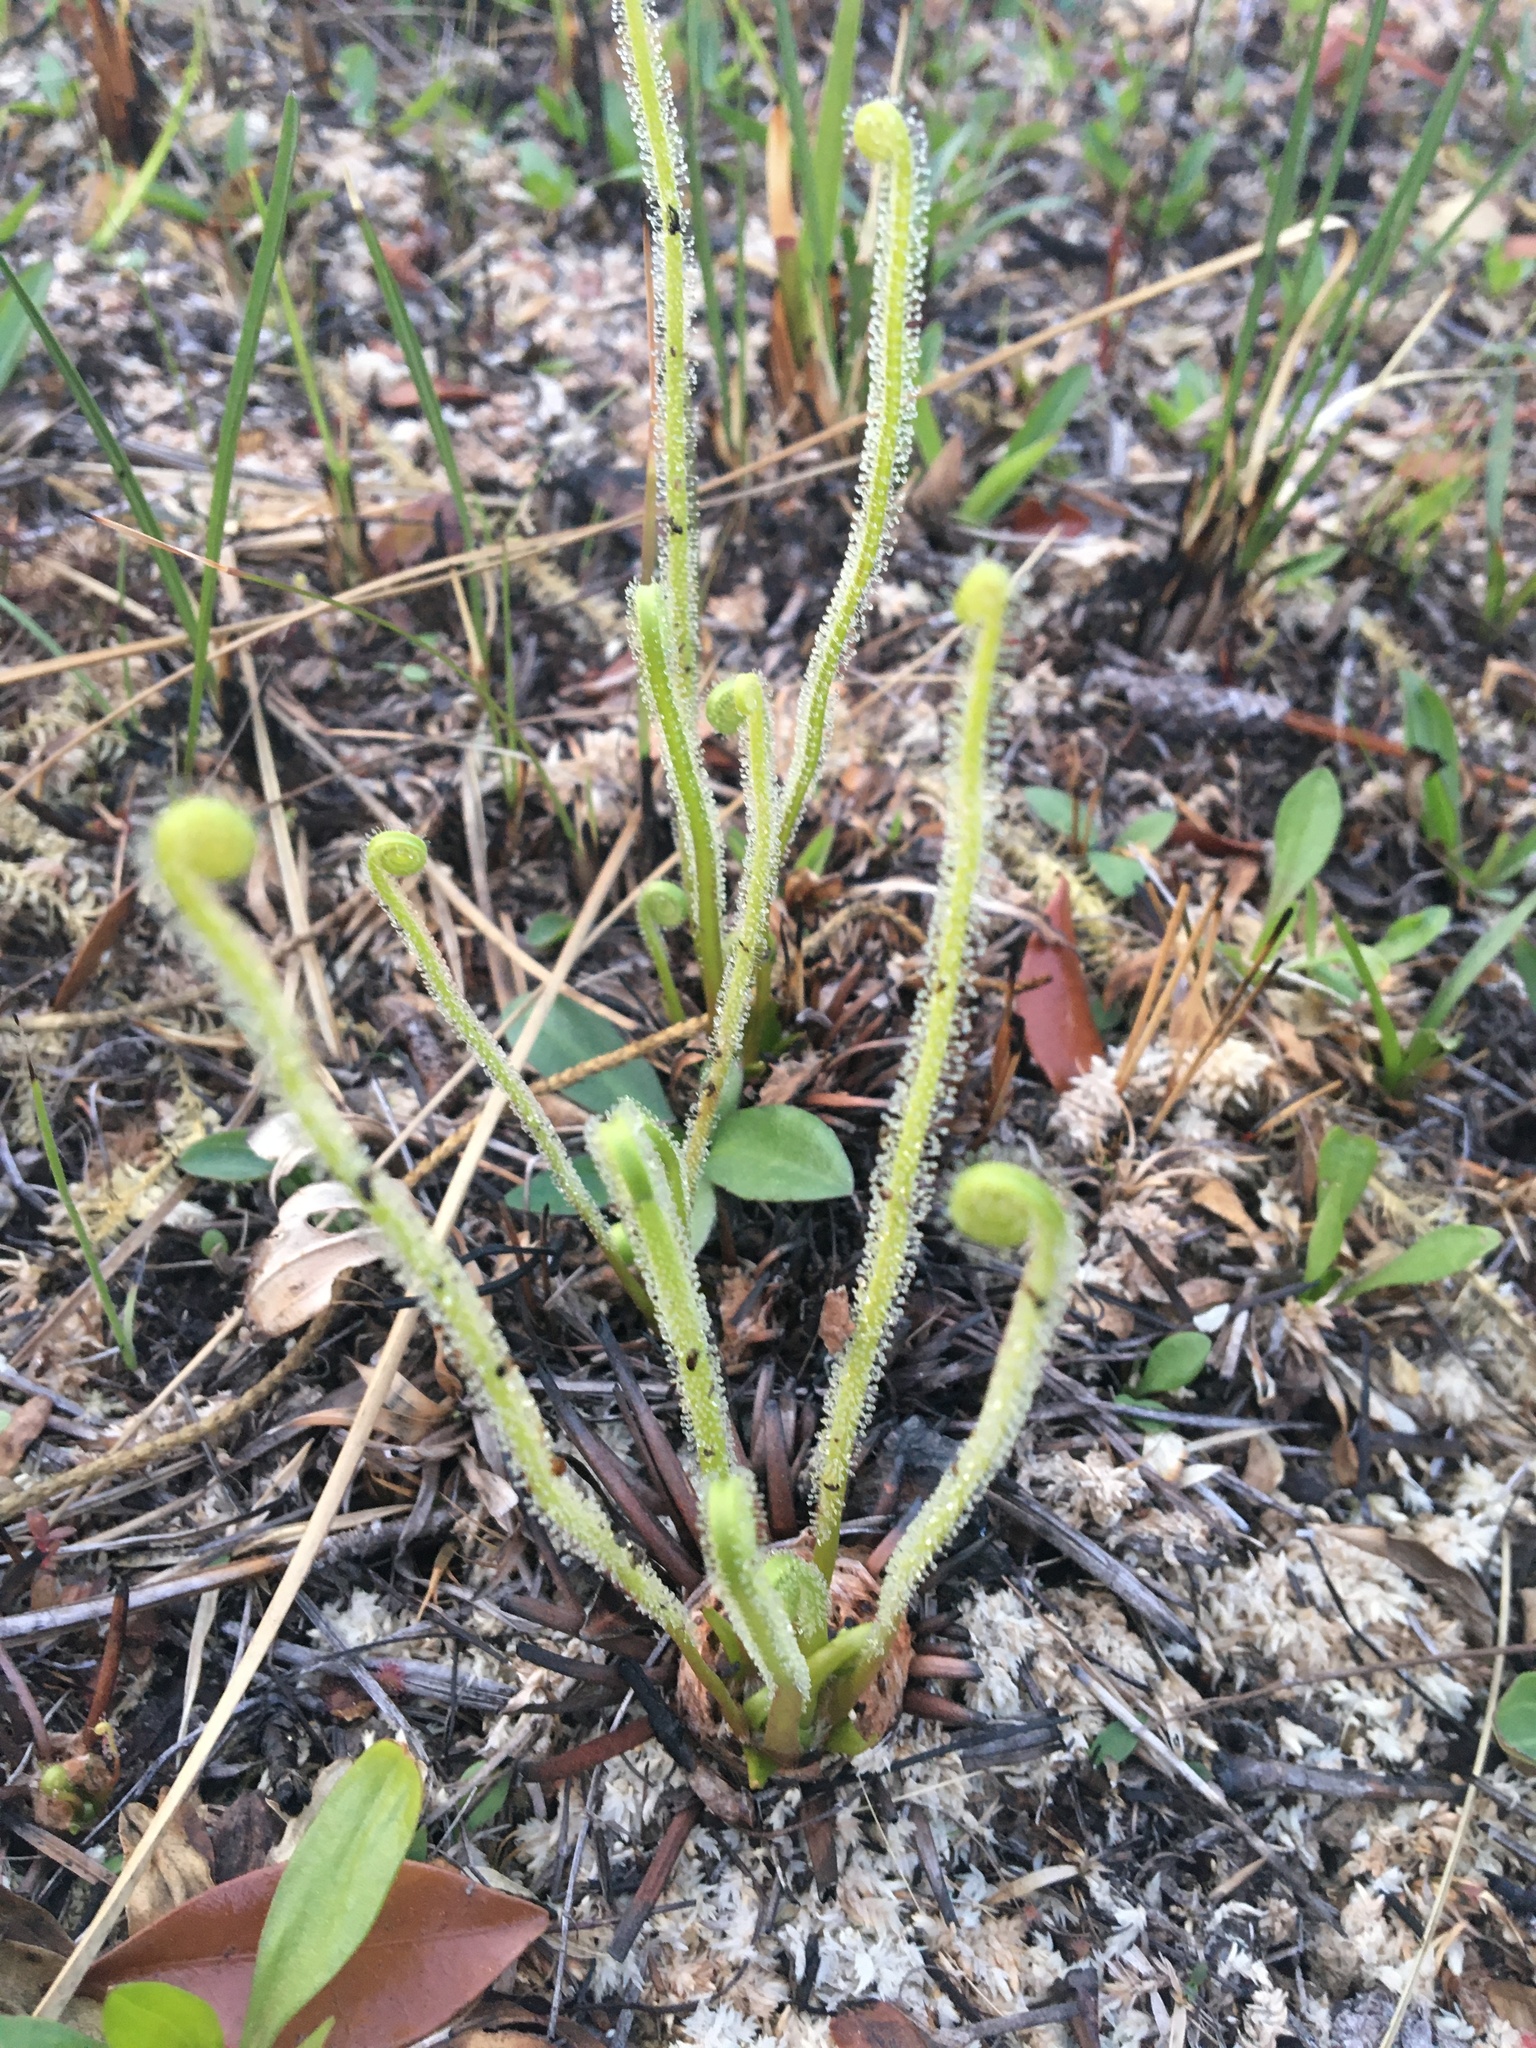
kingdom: Plantae
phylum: Tracheophyta
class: Magnoliopsida
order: Caryophyllales
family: Droseraceae
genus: Drosera
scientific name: Drosera filiformis
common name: Dew-thread
